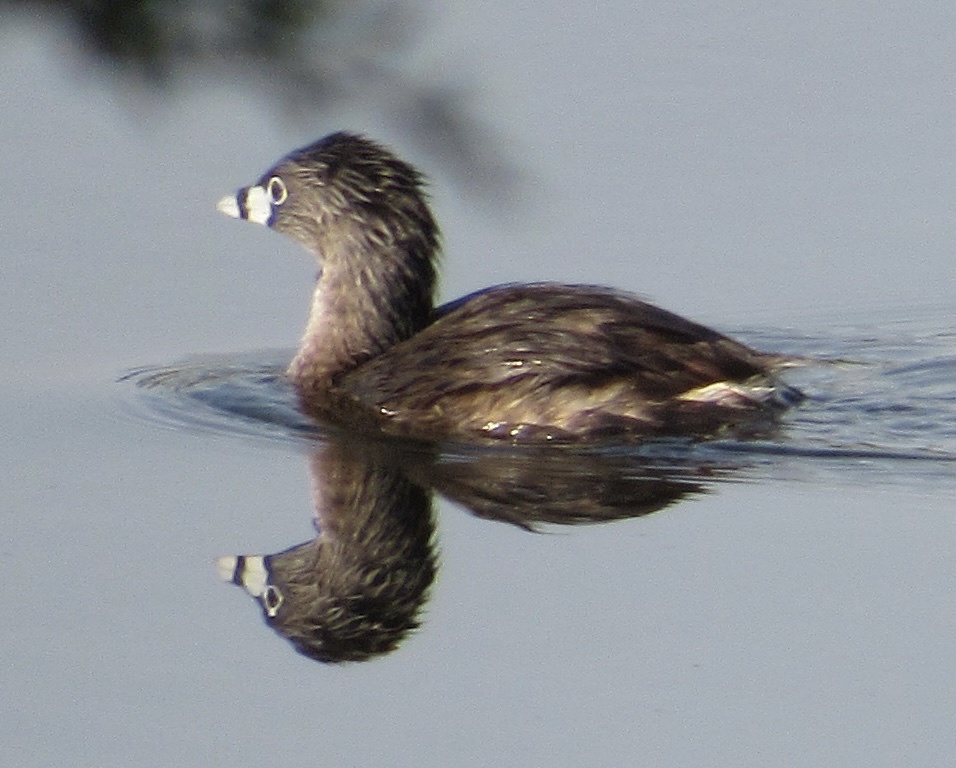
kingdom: Animalia
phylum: Chordata
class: Aves
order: Podicipediformes
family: Podicipedidae
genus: Podilymbus
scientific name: Podilymbus podiceps
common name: Pied-billed grebe
